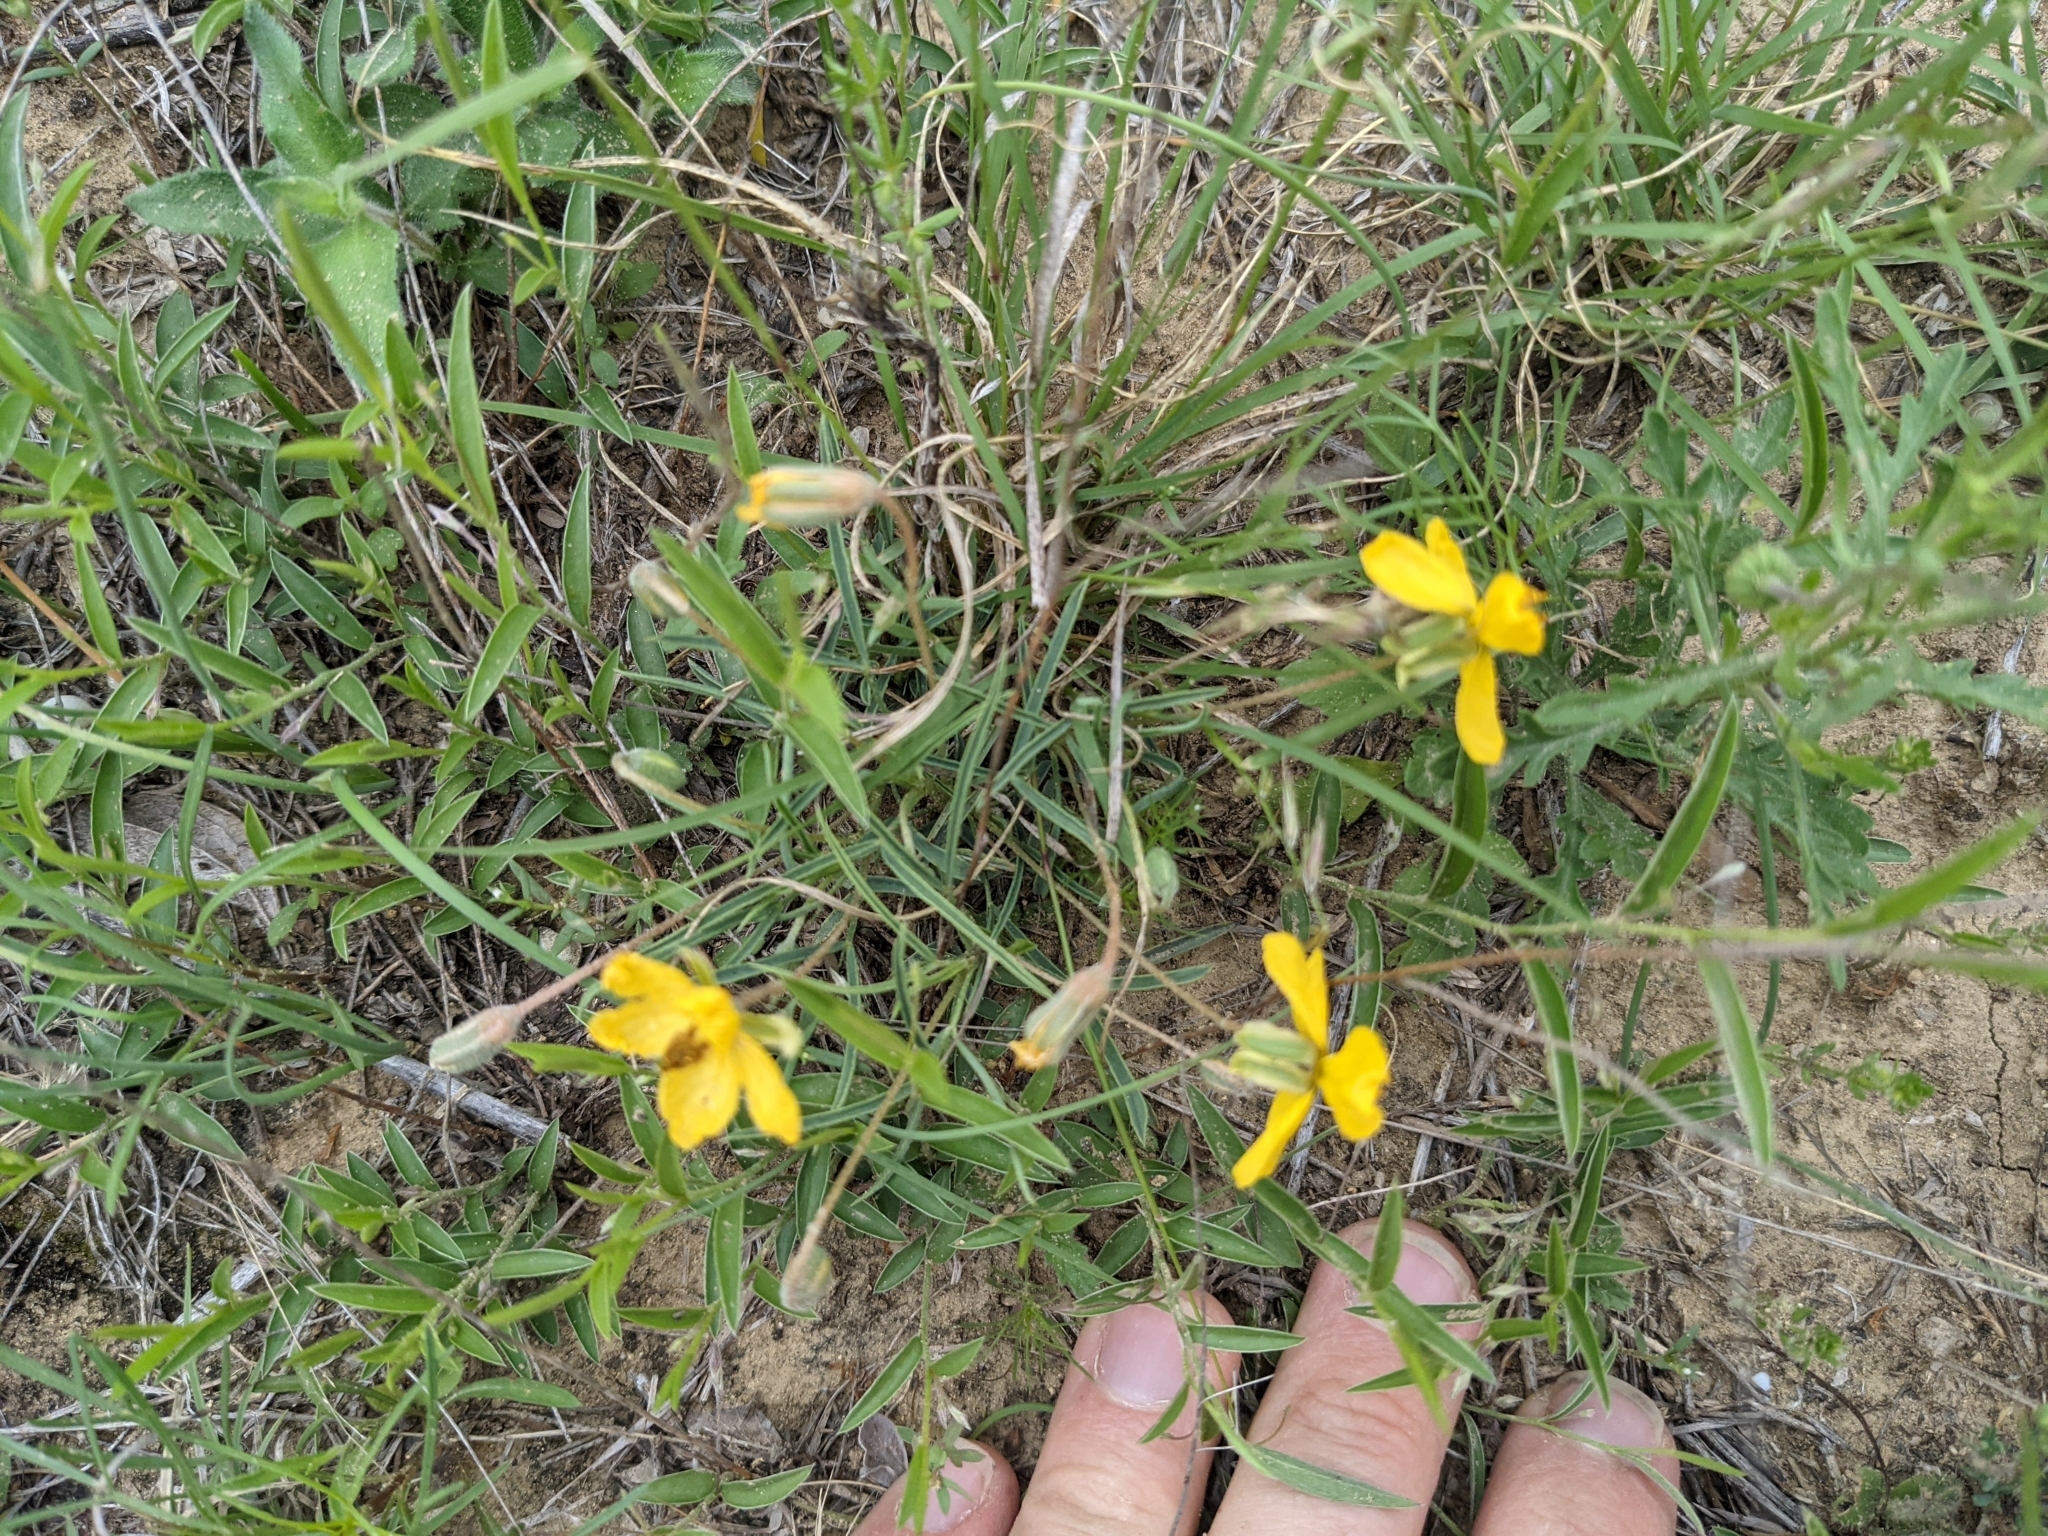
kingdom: Plantae
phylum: Tracheophyta
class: Magnoliopsida
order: Fabales
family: Fabaceae
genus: Senna
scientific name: Senna pumilio
